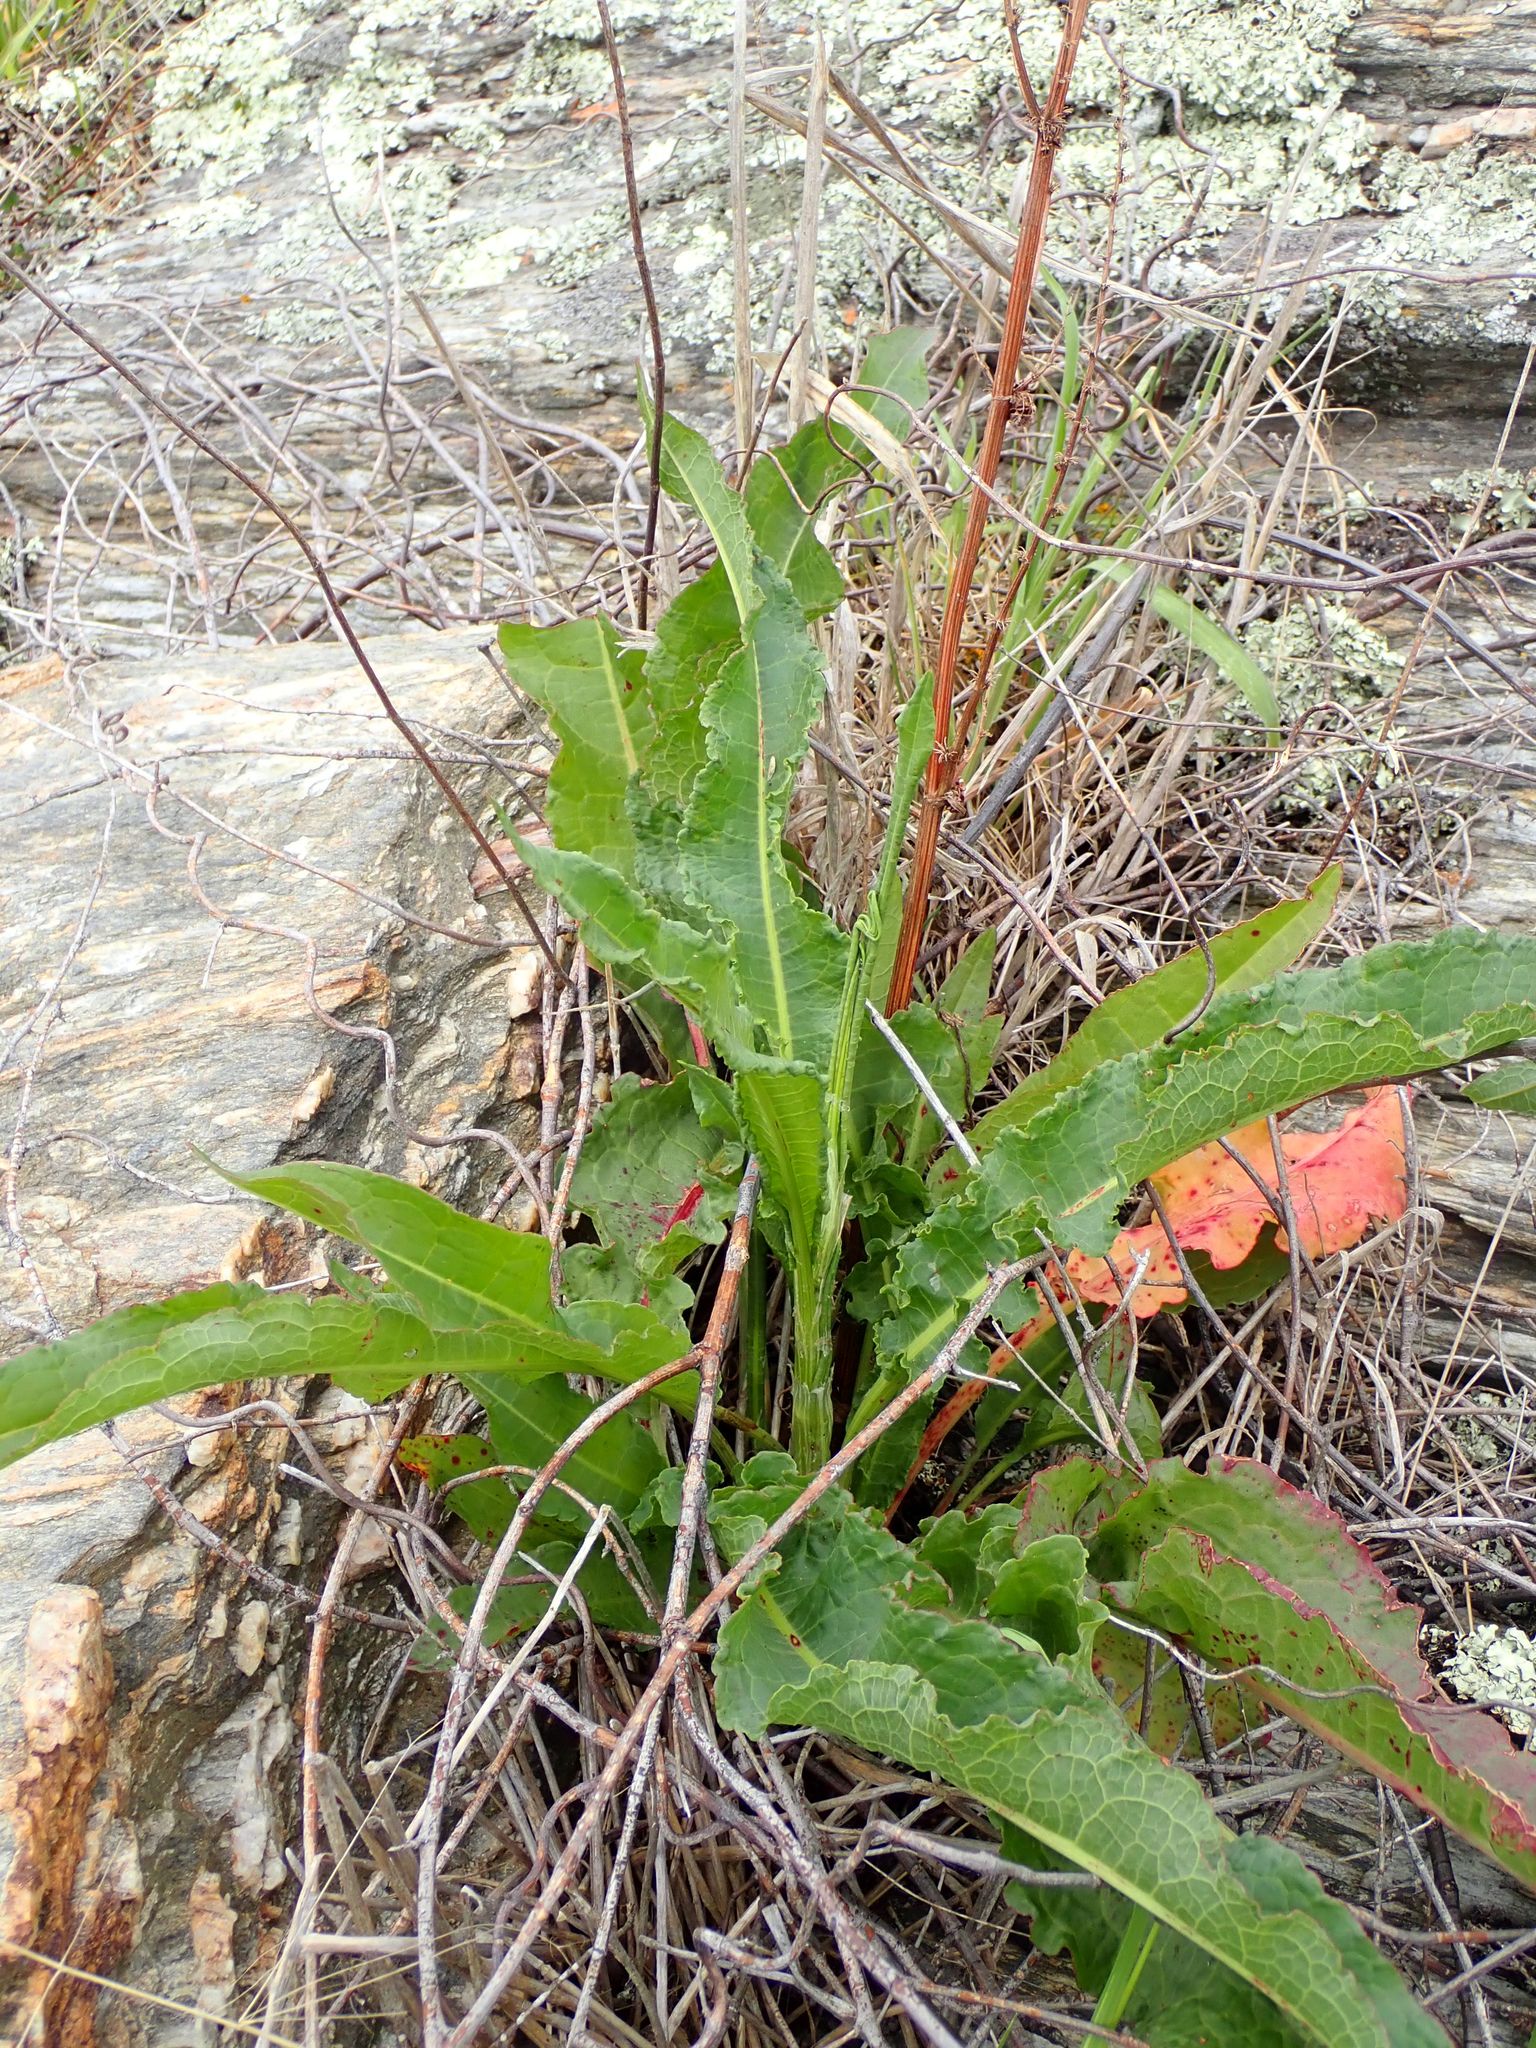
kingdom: Plantae
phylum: Tracheophyta
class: Magnoliopsida
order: Caryophyllales
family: Polygonaceae
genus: Rumex
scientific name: Rumex crispus
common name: Curled dock
